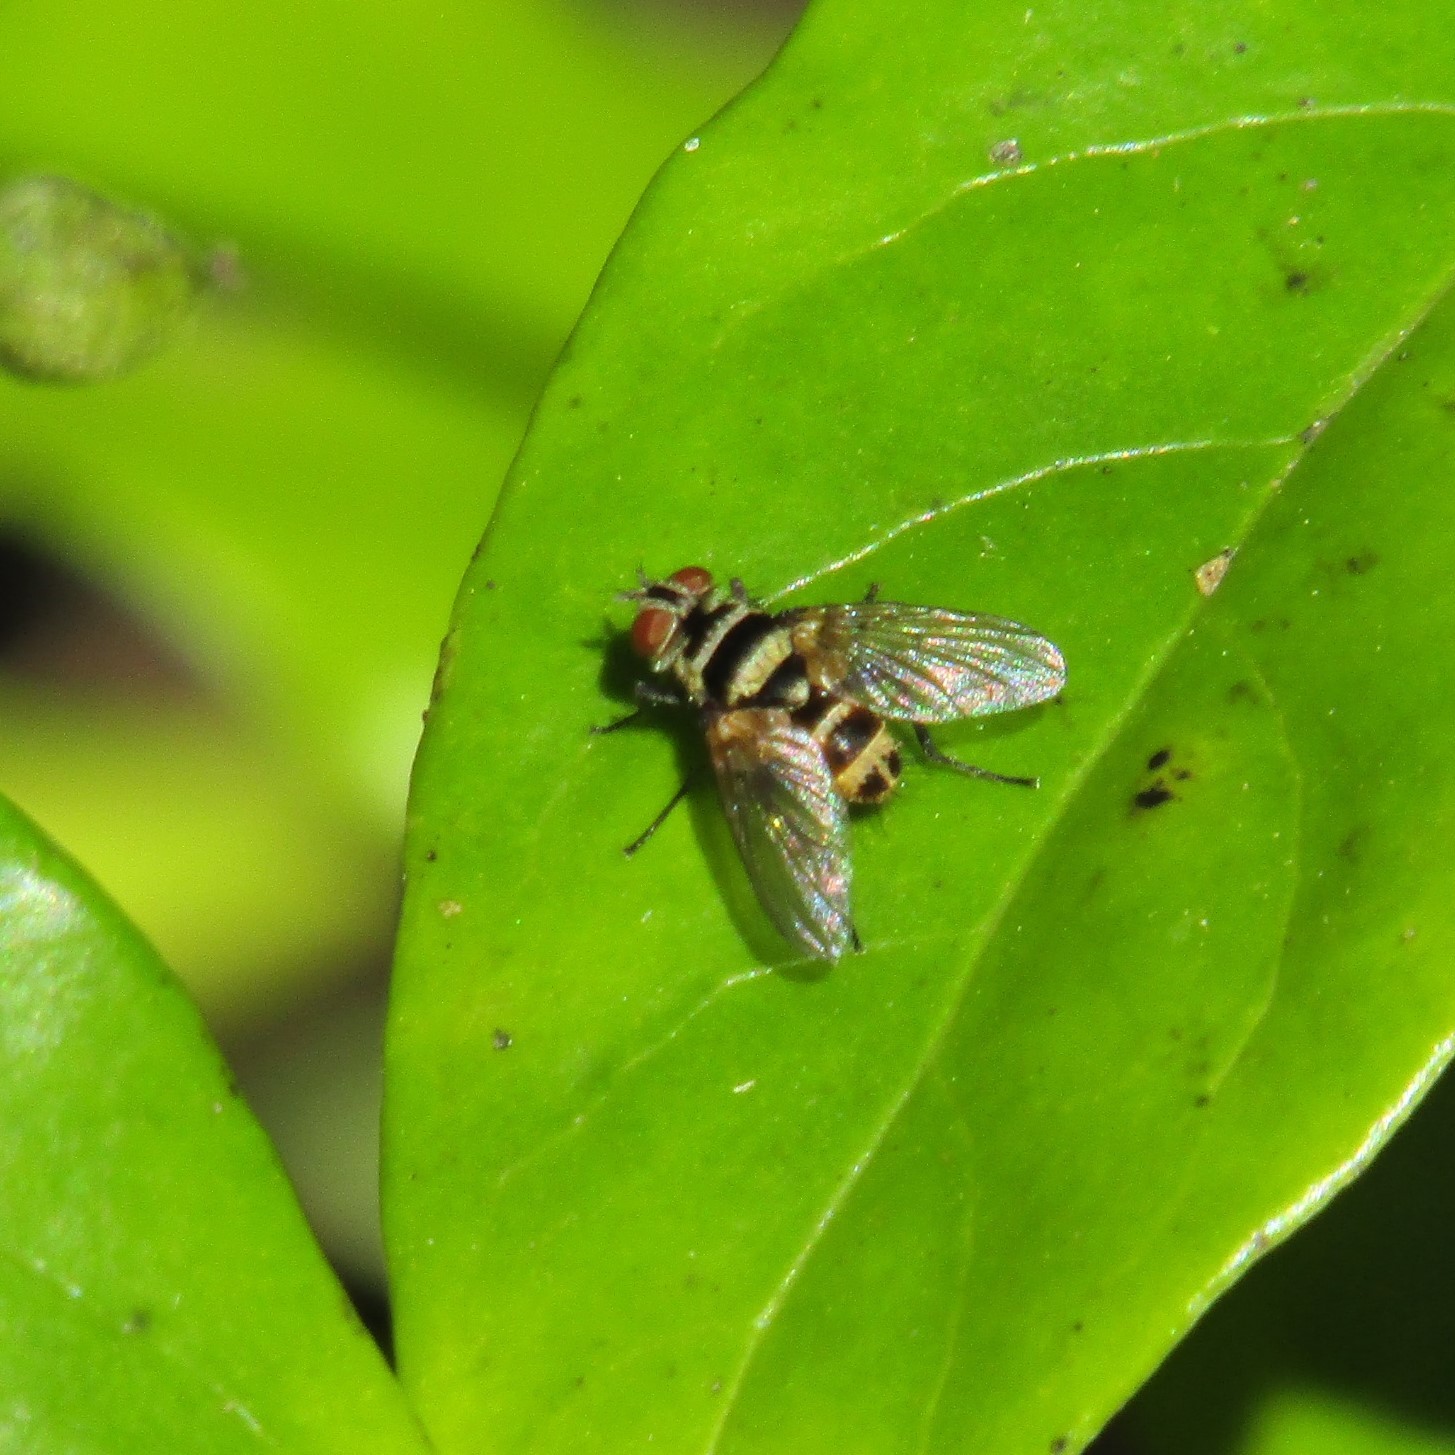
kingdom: Animalia
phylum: Arthropoda
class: Insecta
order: Diptera
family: Tachinidae
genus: Trigonospila
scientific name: Trigonospila brevifacies
